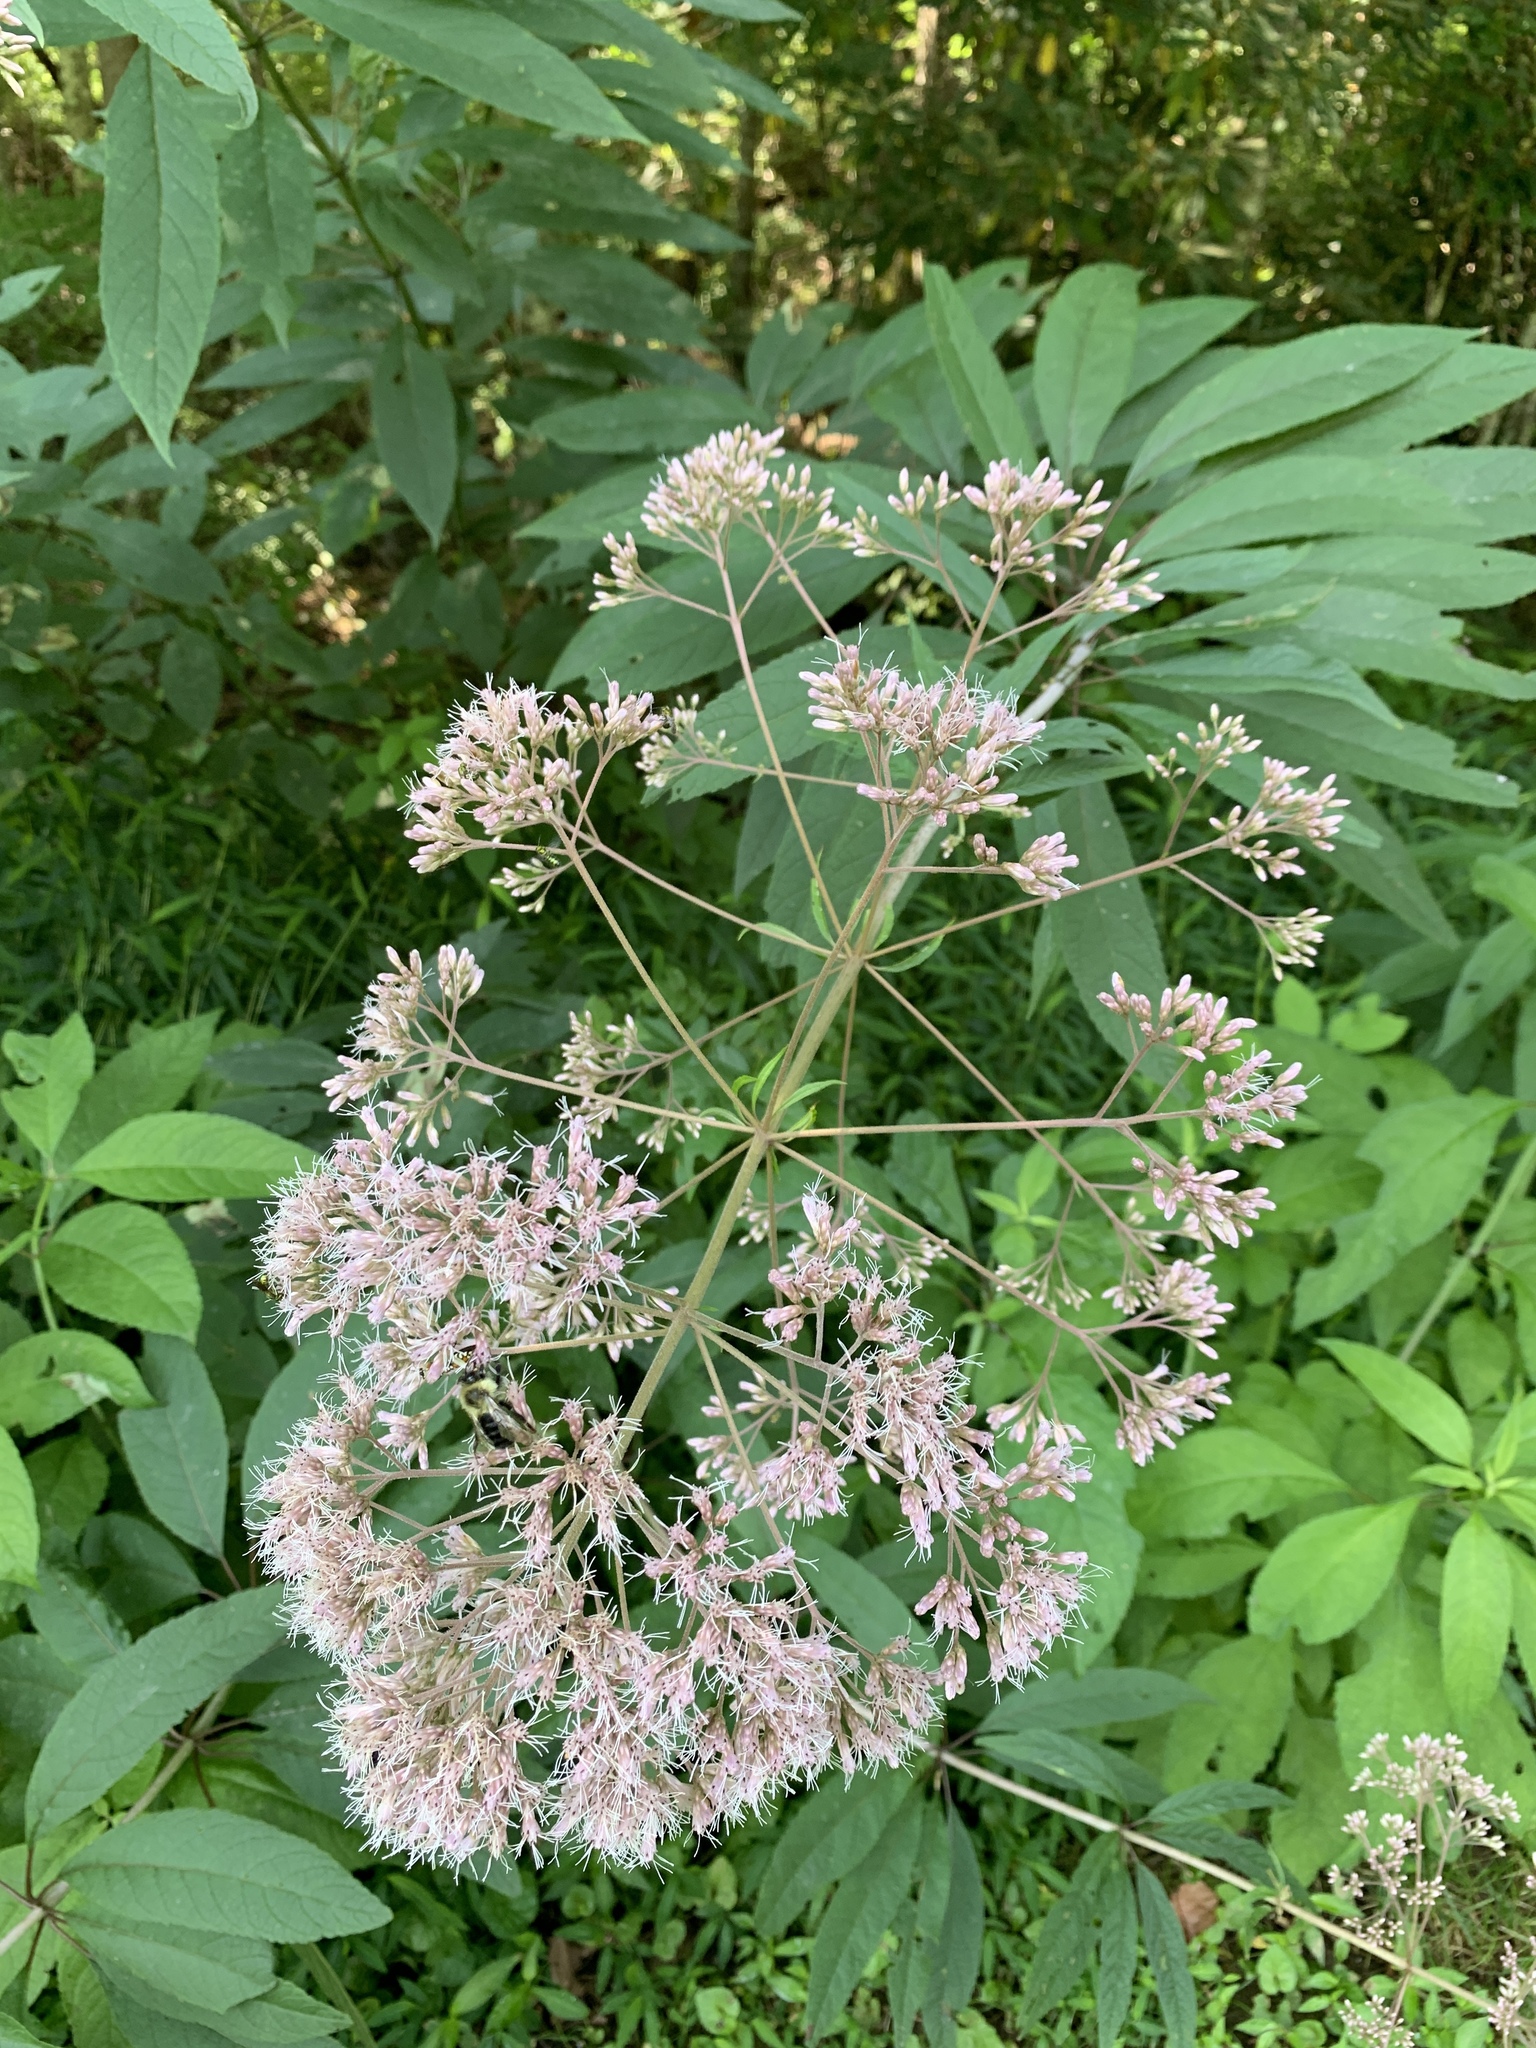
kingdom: Plantae
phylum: Tracheophyta
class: Magnoliopsida
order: Asterales
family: Asteraceae
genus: Eutrochium
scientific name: Eutrochium purpureum
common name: Gravelroot
